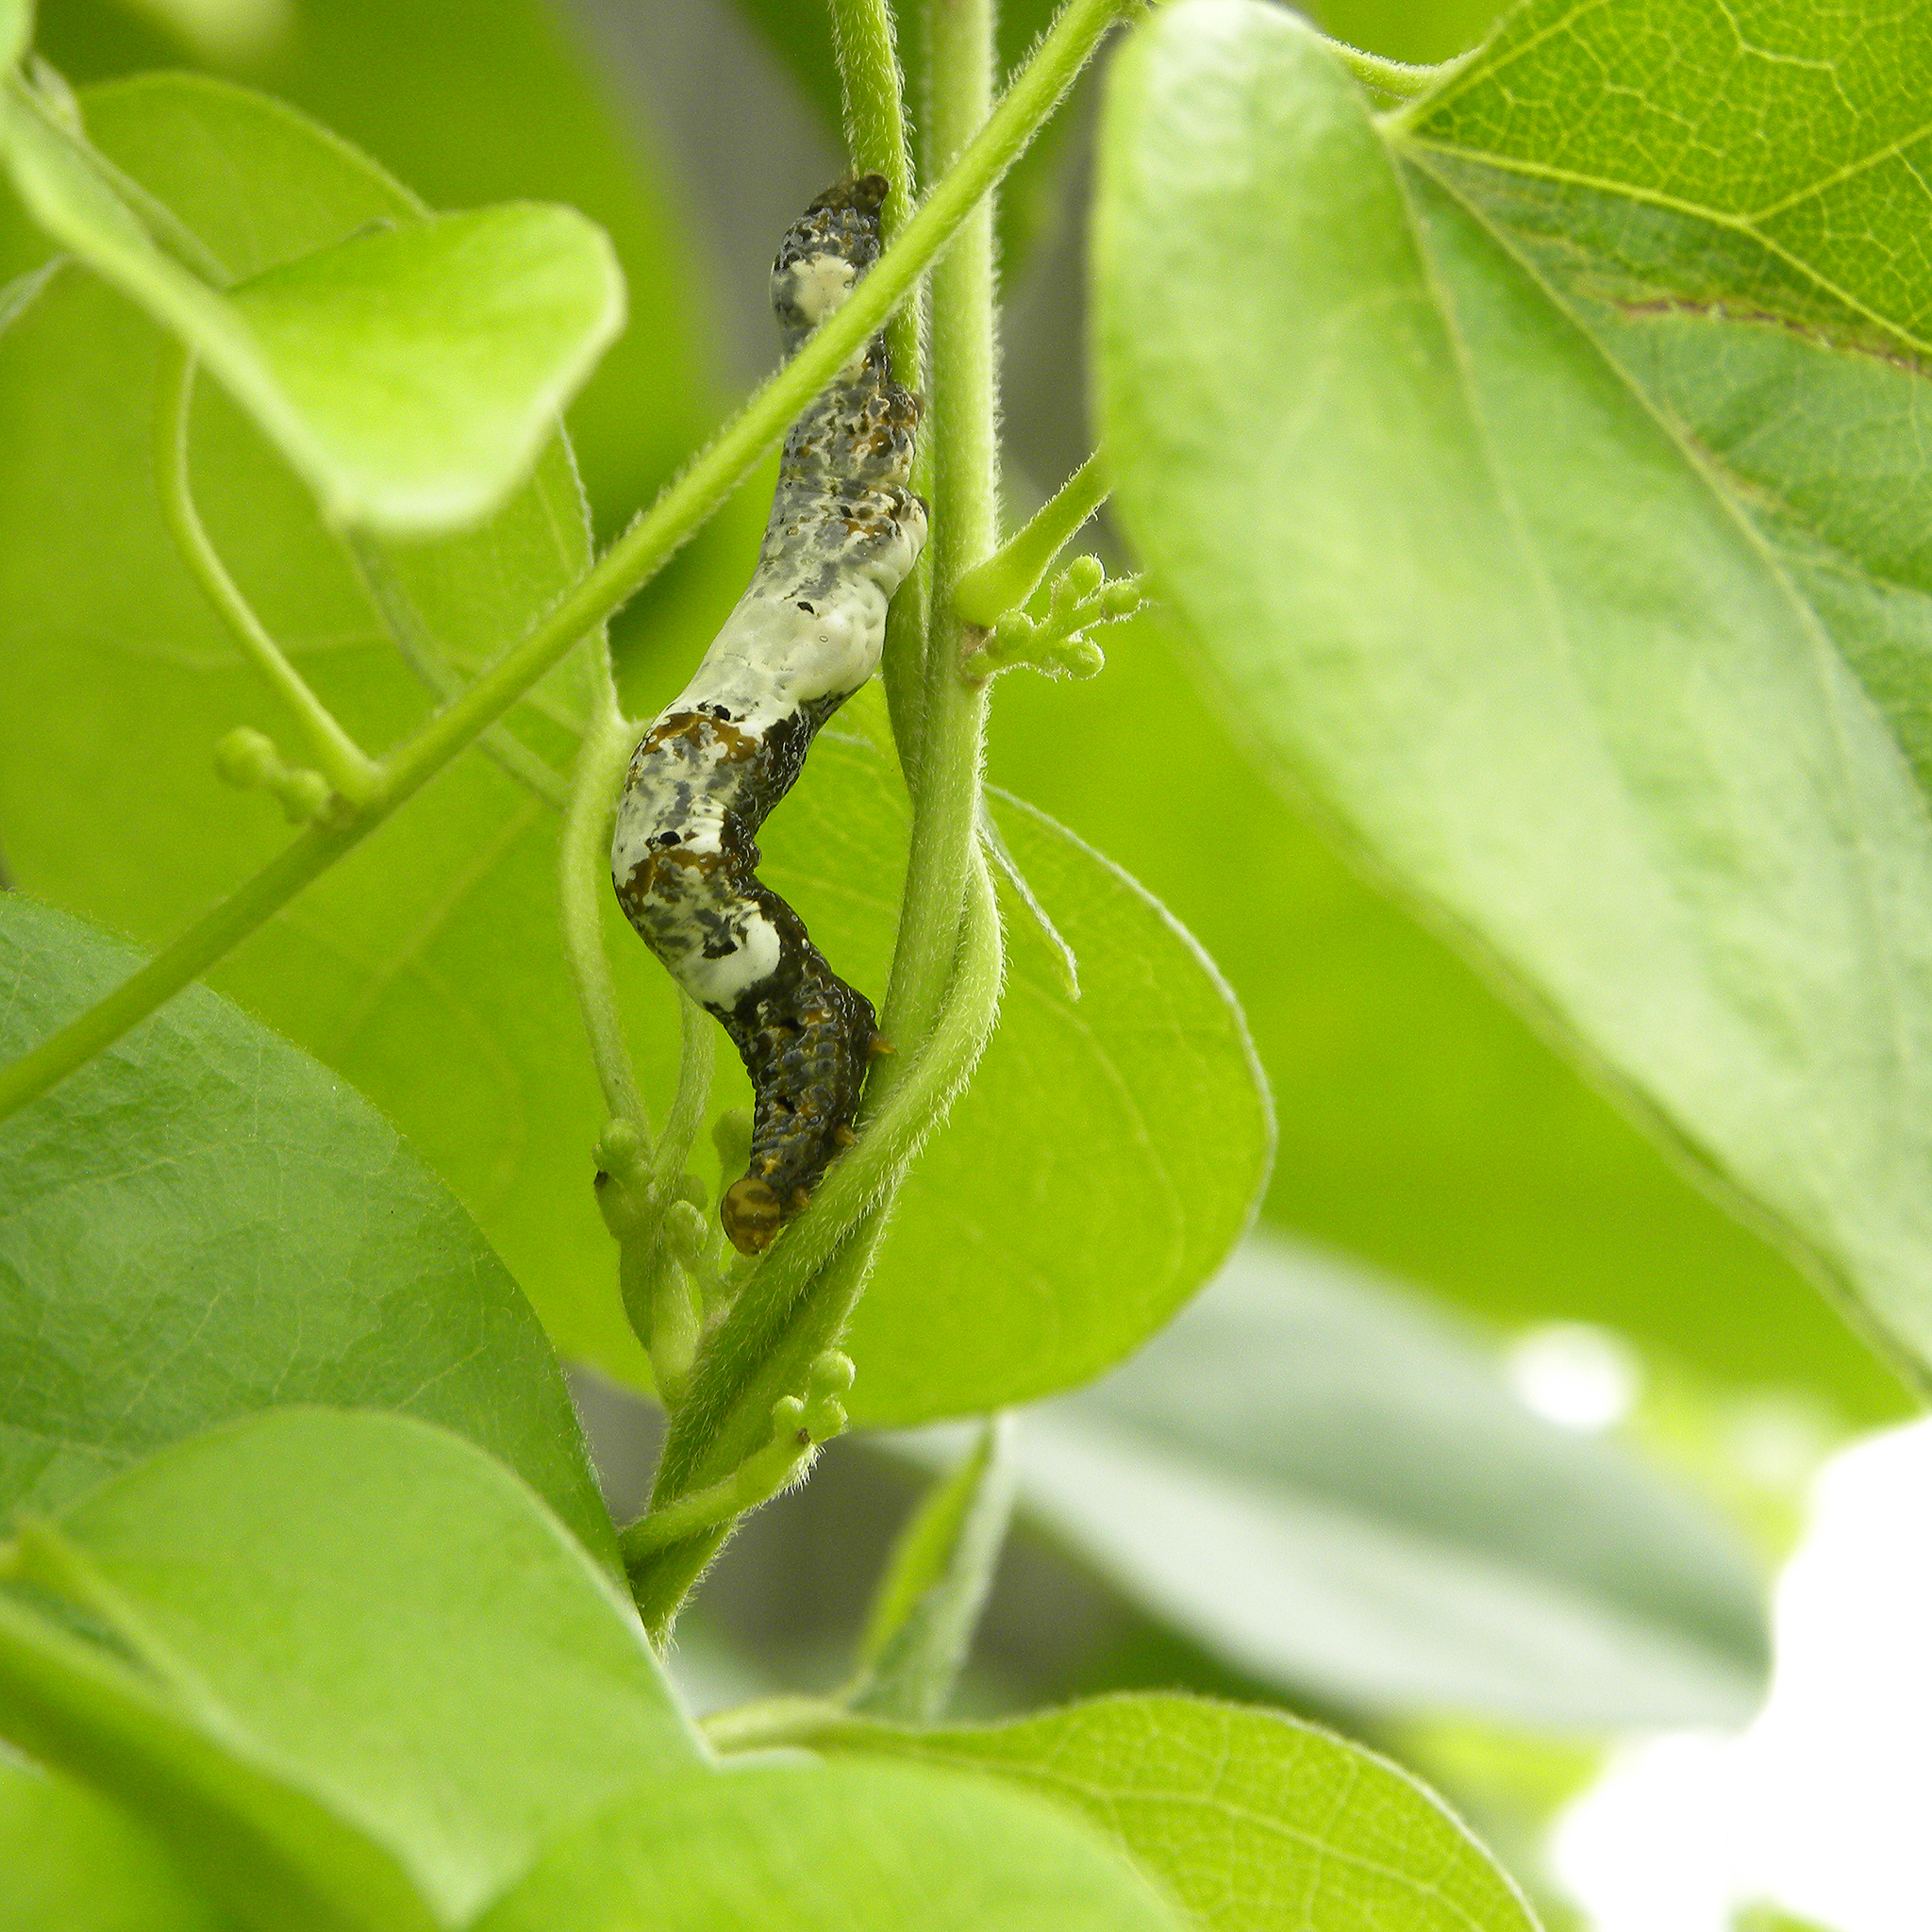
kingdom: Animalia
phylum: Arthropoda
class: Insecta
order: Lepidoptera
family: Erebidae
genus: Plusiodonta
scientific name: Plusiodonta compressipalpis
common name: Moonseed moth
